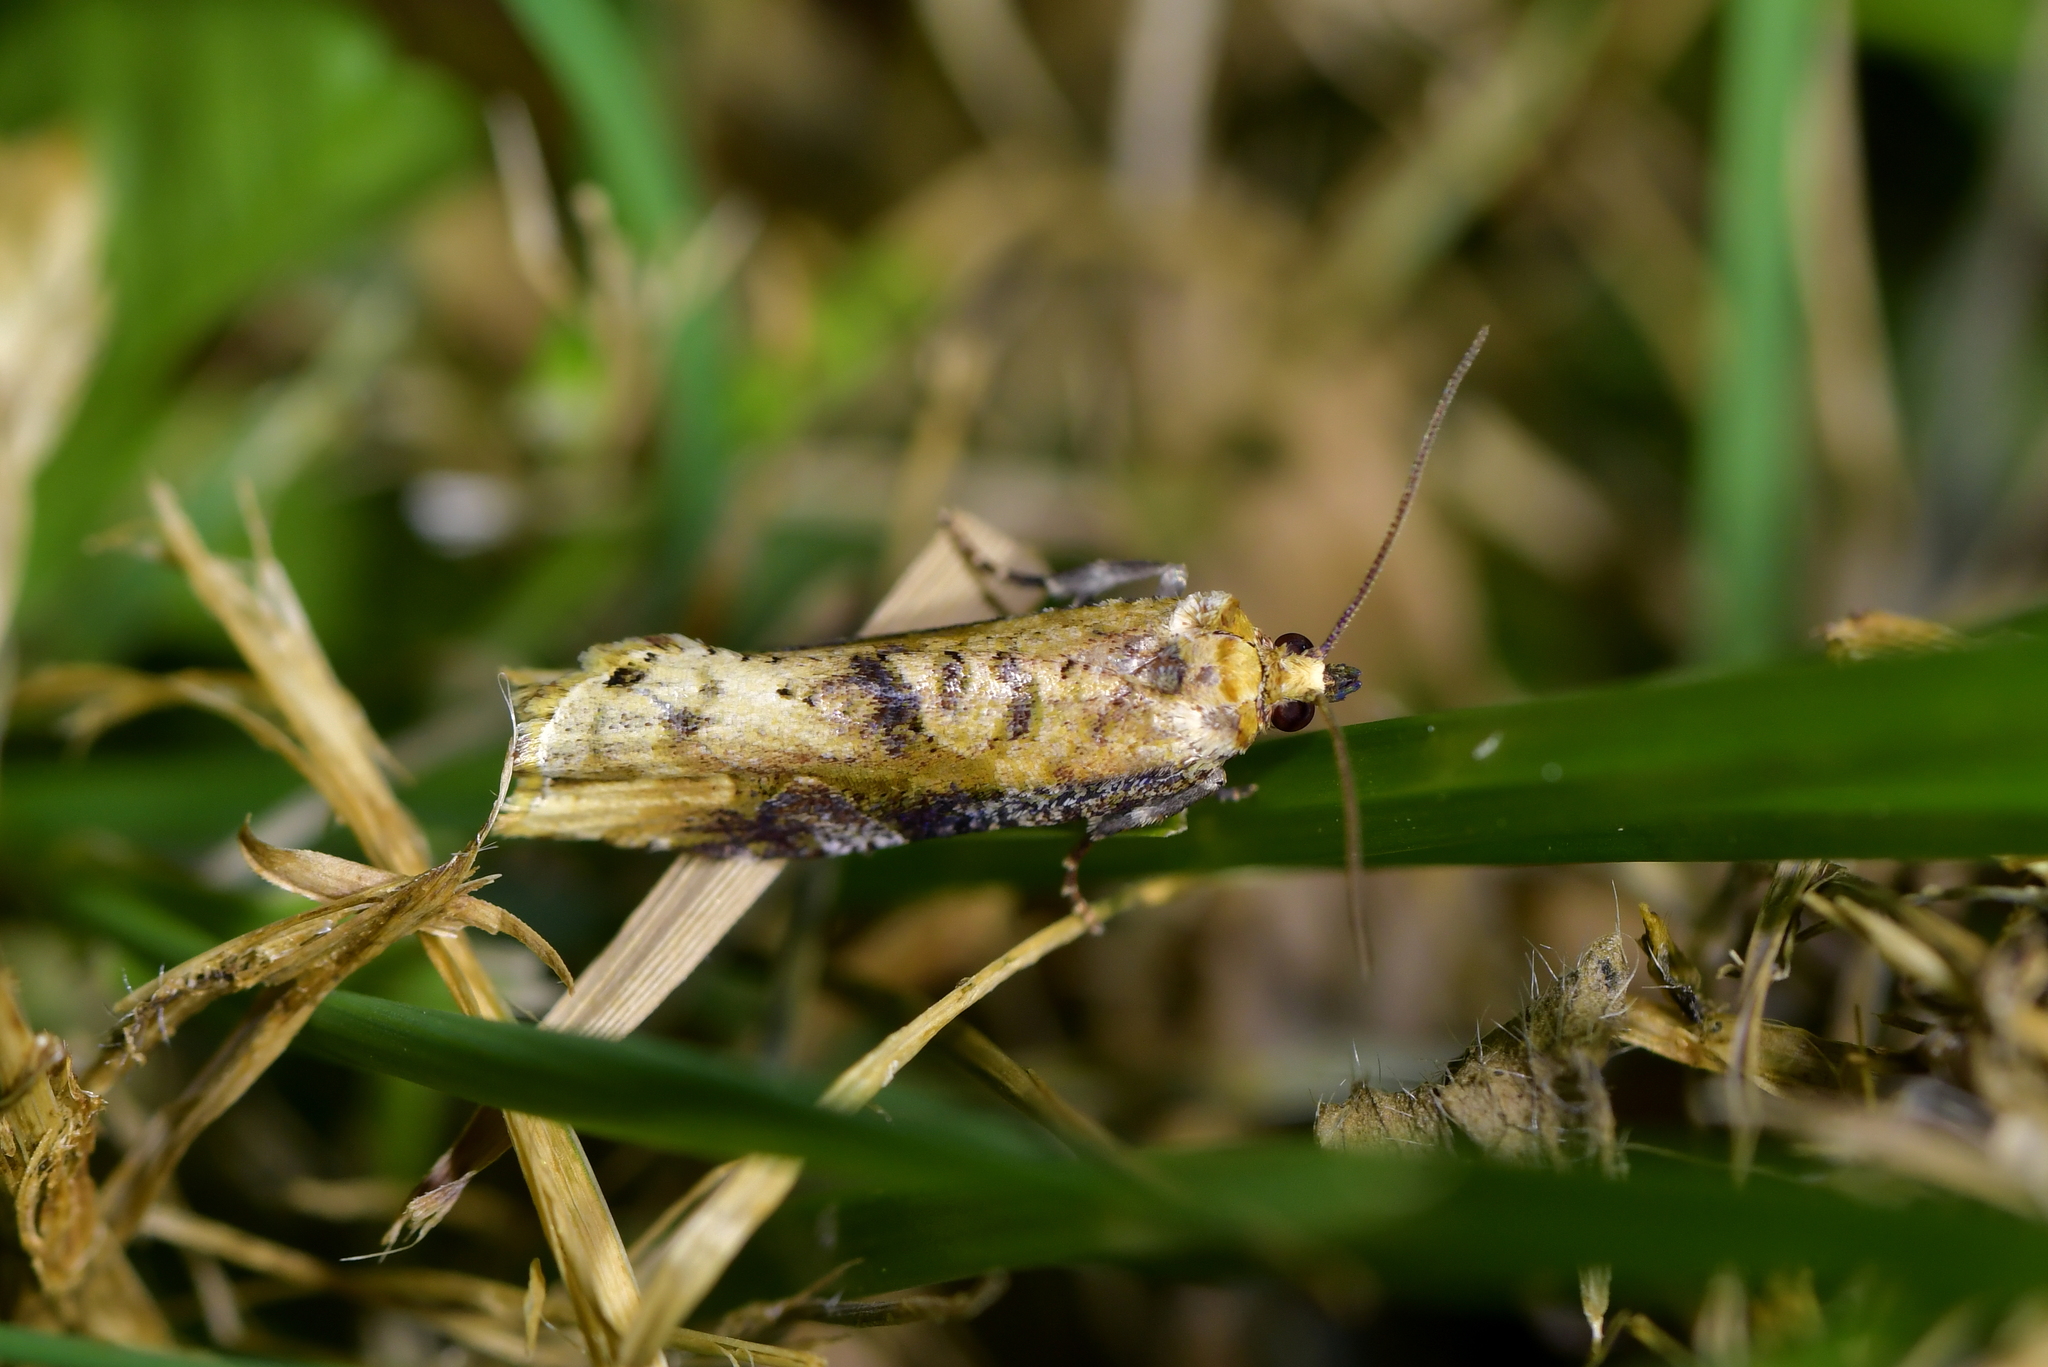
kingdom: Animalia
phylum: Arthropoda
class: Insecta
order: Lepidoptera
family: Tortricidae
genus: Epalxiphora
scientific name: Epalxiphora axenana
